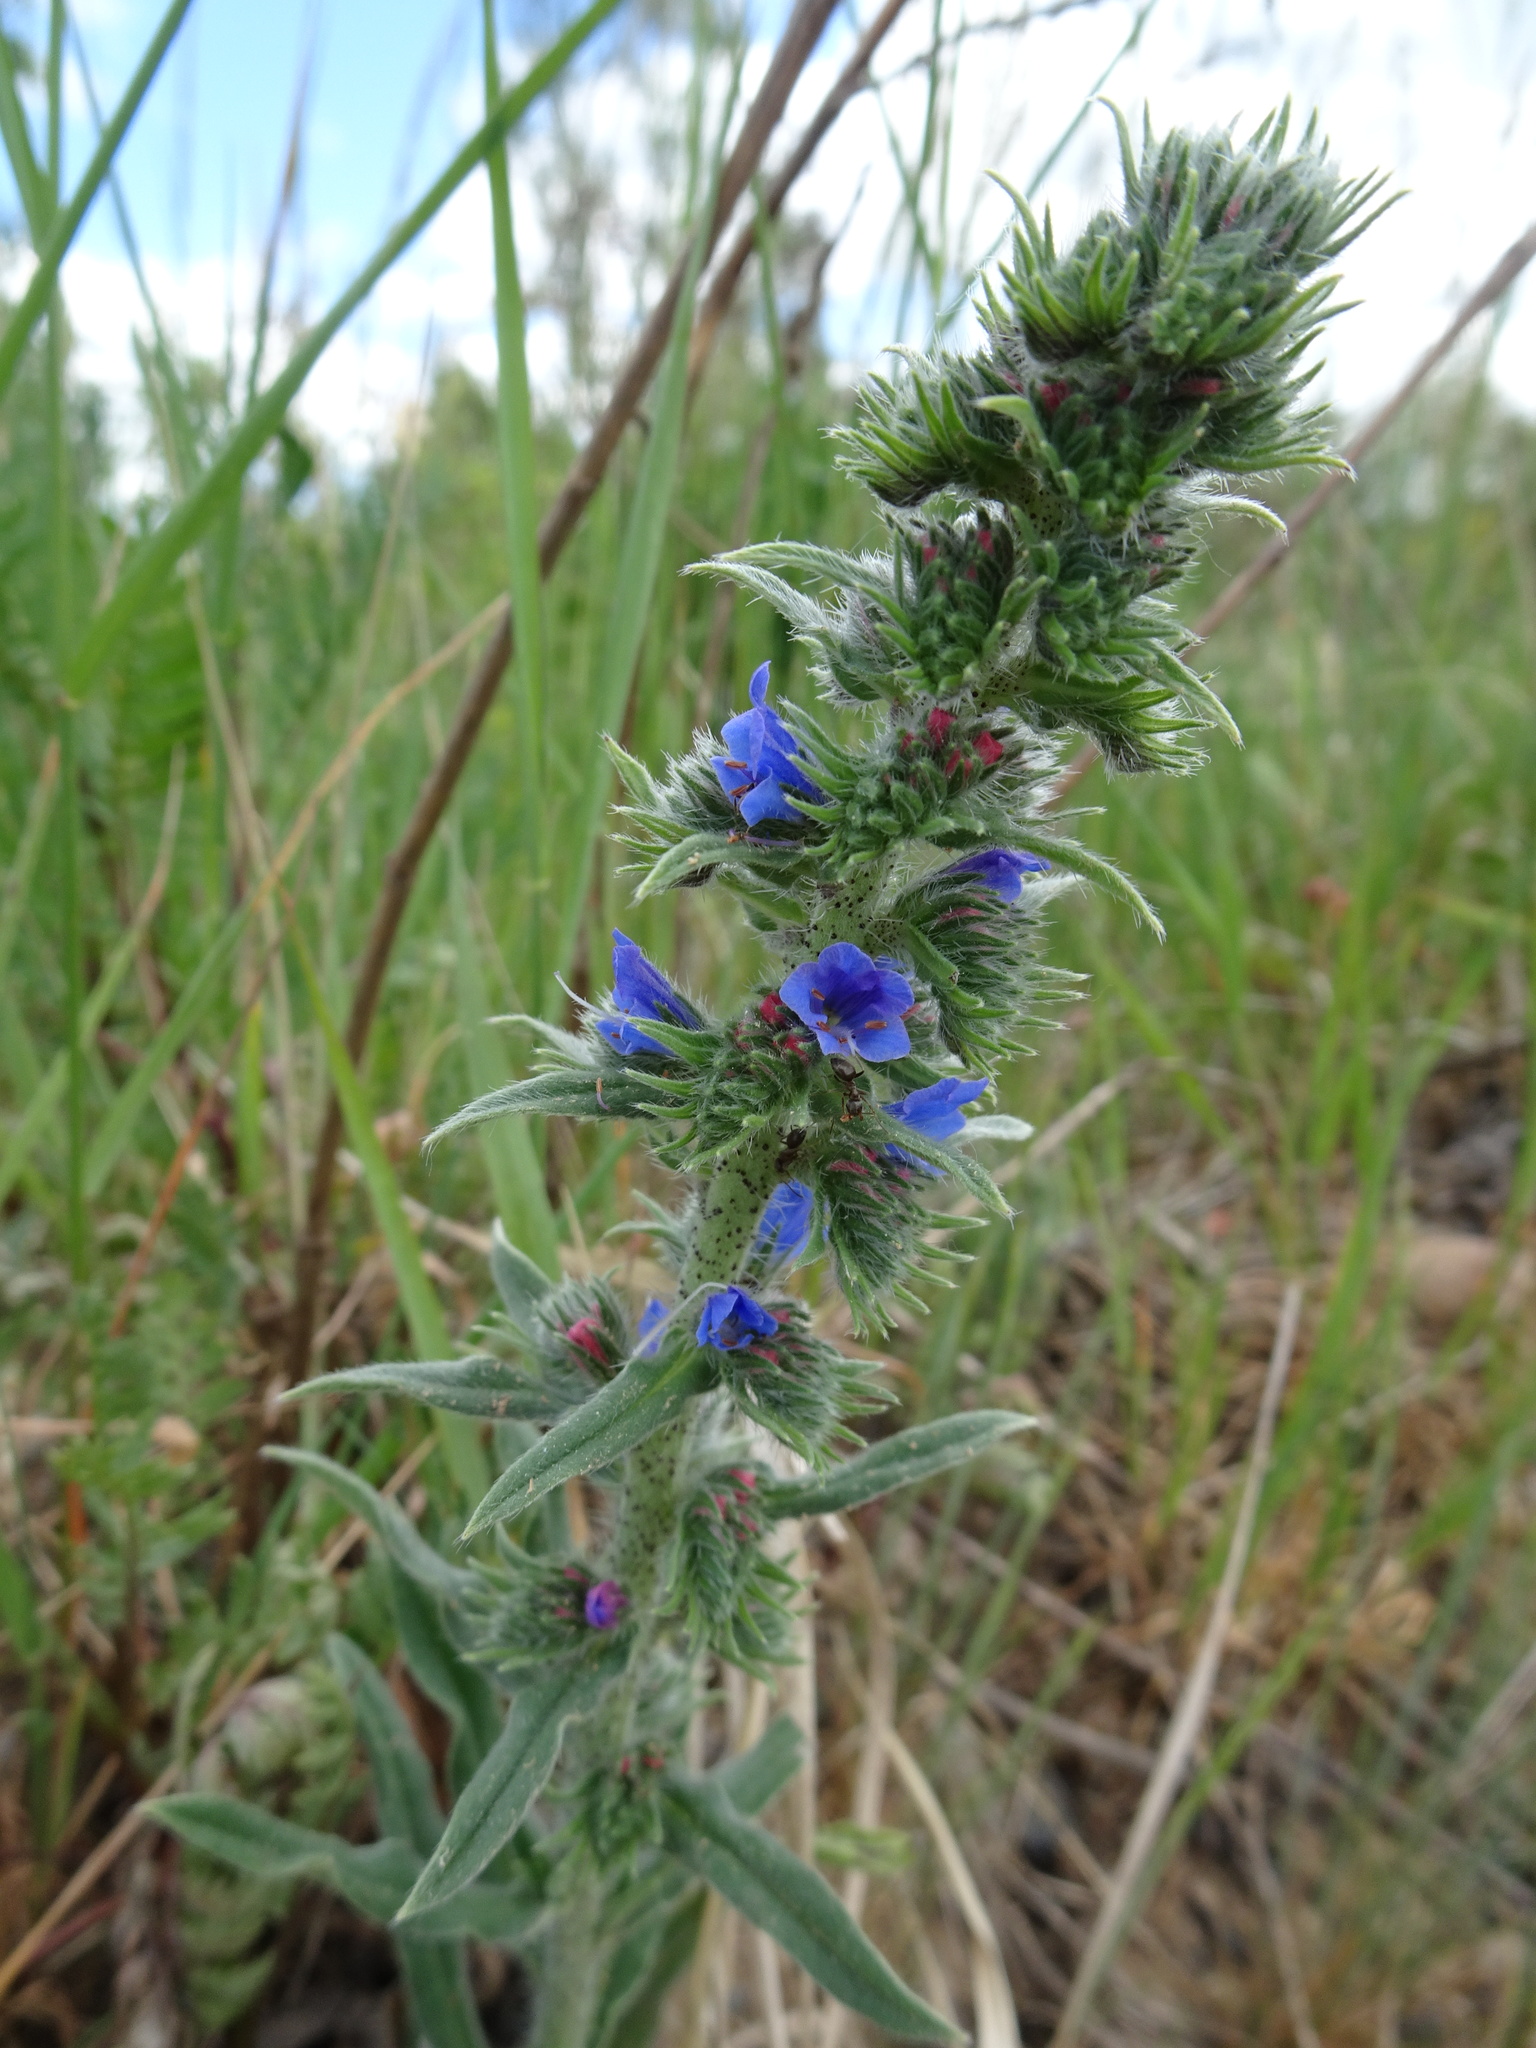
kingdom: Plantae
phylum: Tracheophyta
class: Magnoliopsida
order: Boraginales
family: Boraginaceae
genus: Echium
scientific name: Echium vulgare
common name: Common viper's bugloss
